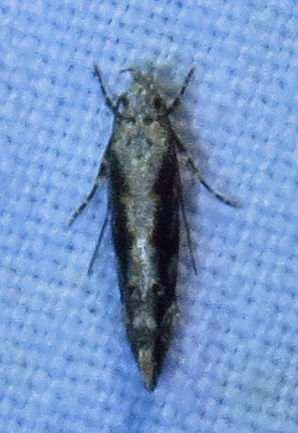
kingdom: Animalia
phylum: Arthropoda
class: Insecta
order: Lepidoptera
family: Gelechiidae
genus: Coleotechnites
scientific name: Coleotechnites florae
